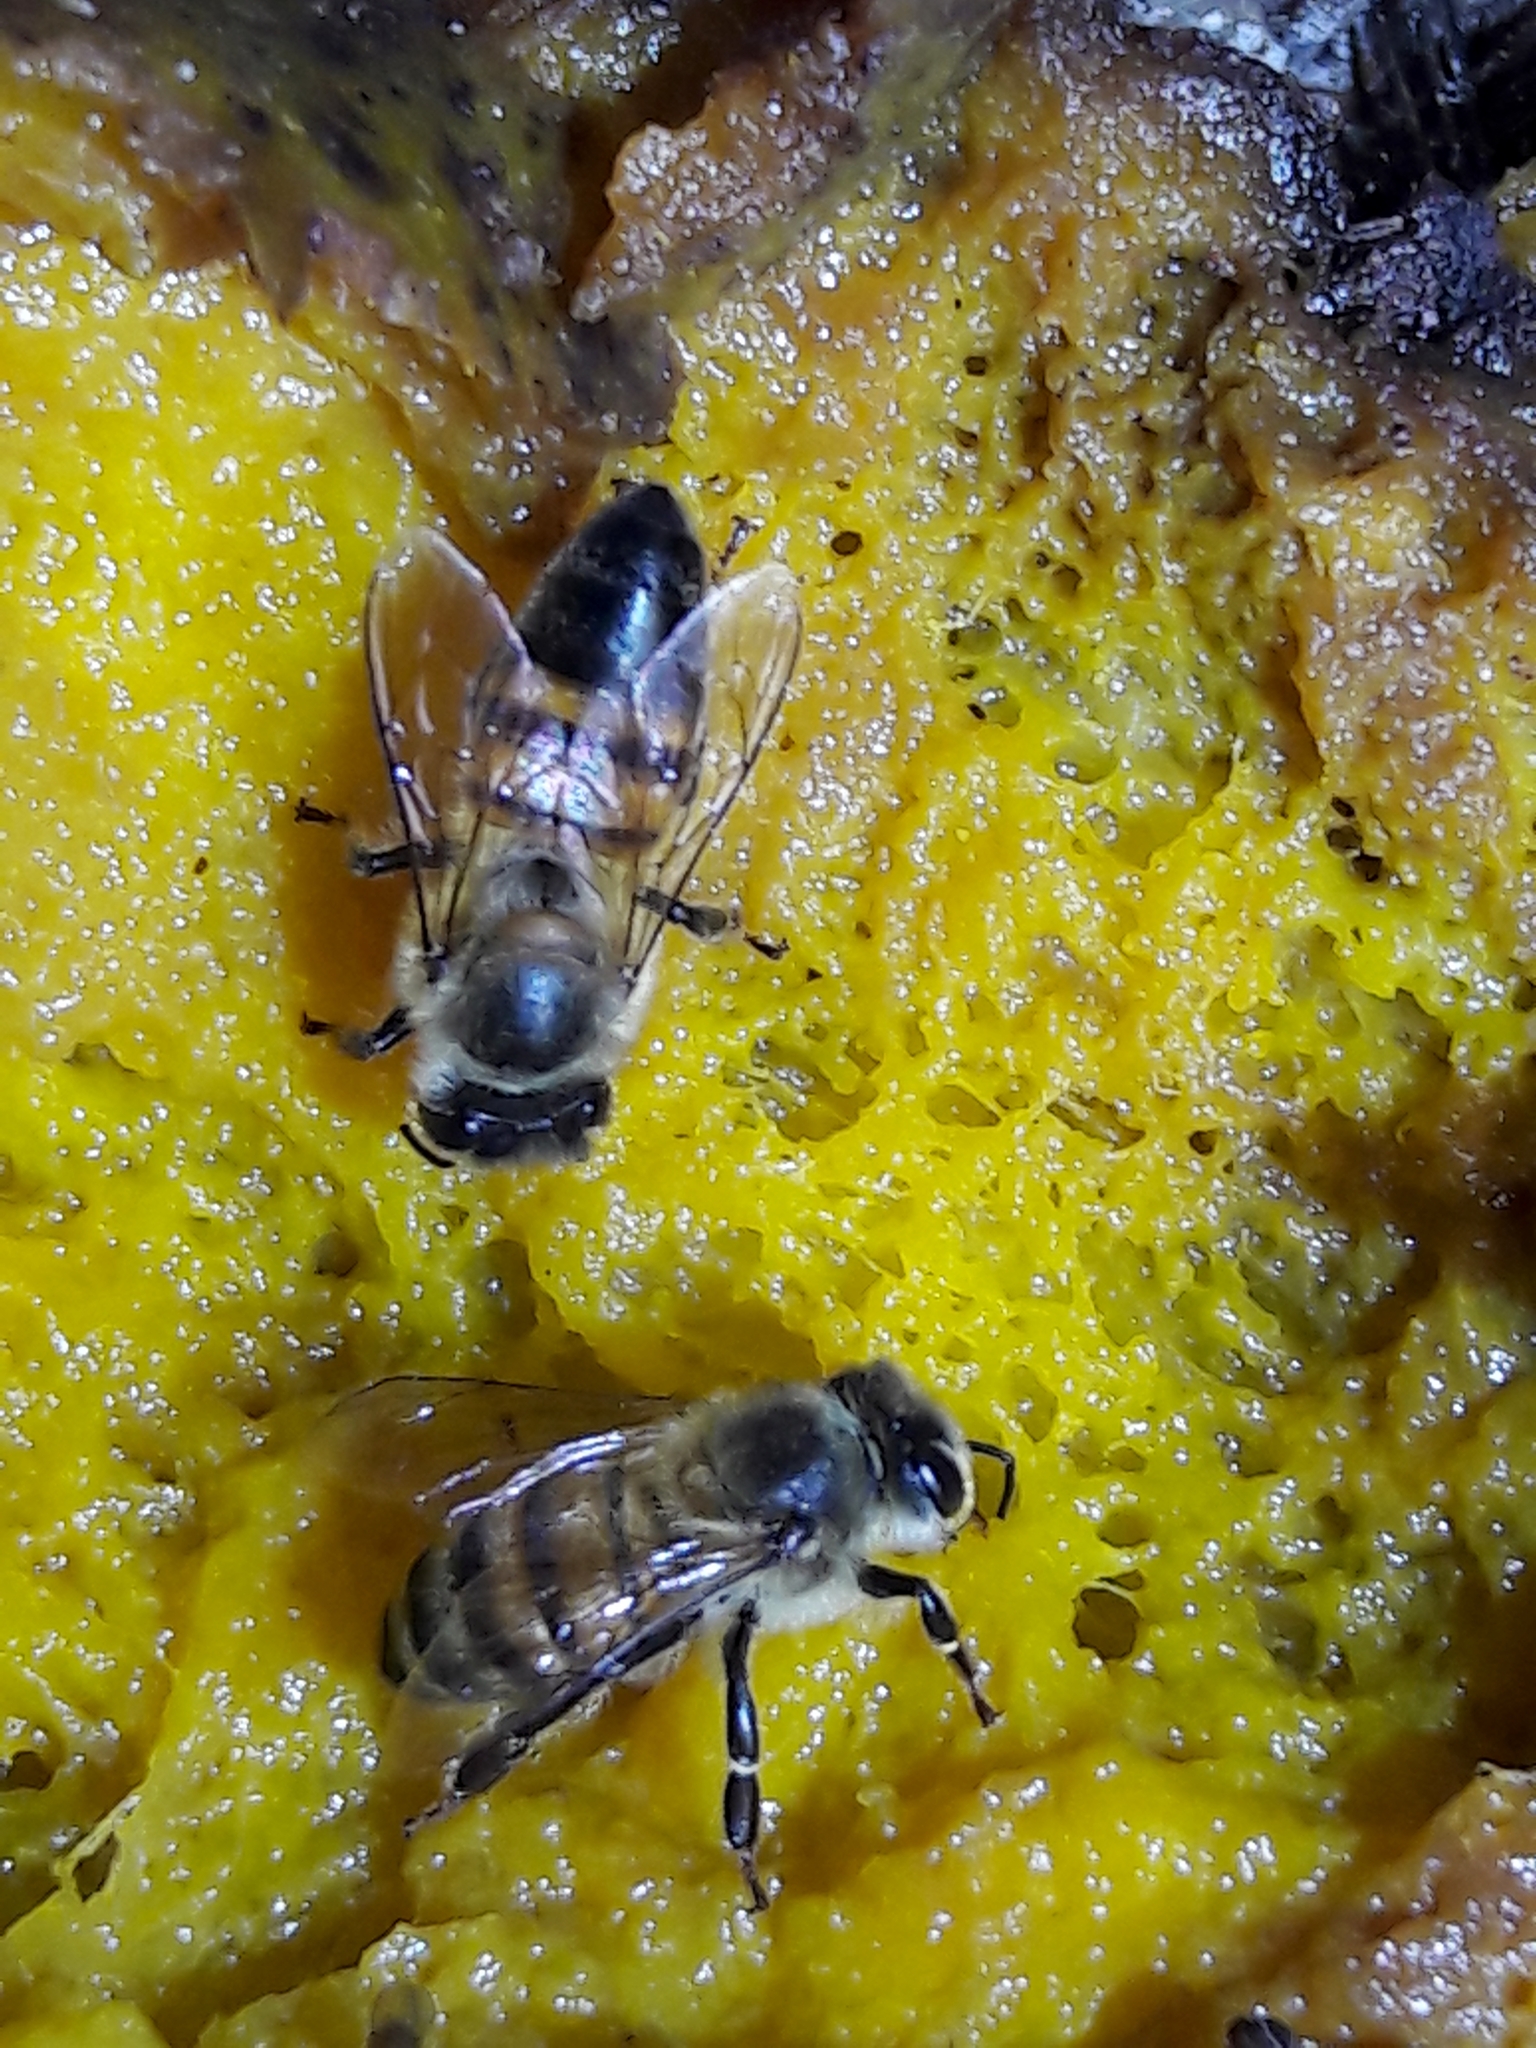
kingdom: Animalia
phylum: Arthropoda
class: Insecta
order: Hymenoptera
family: Apidae
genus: Apis
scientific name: Apis mellifera
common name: Honey bee
